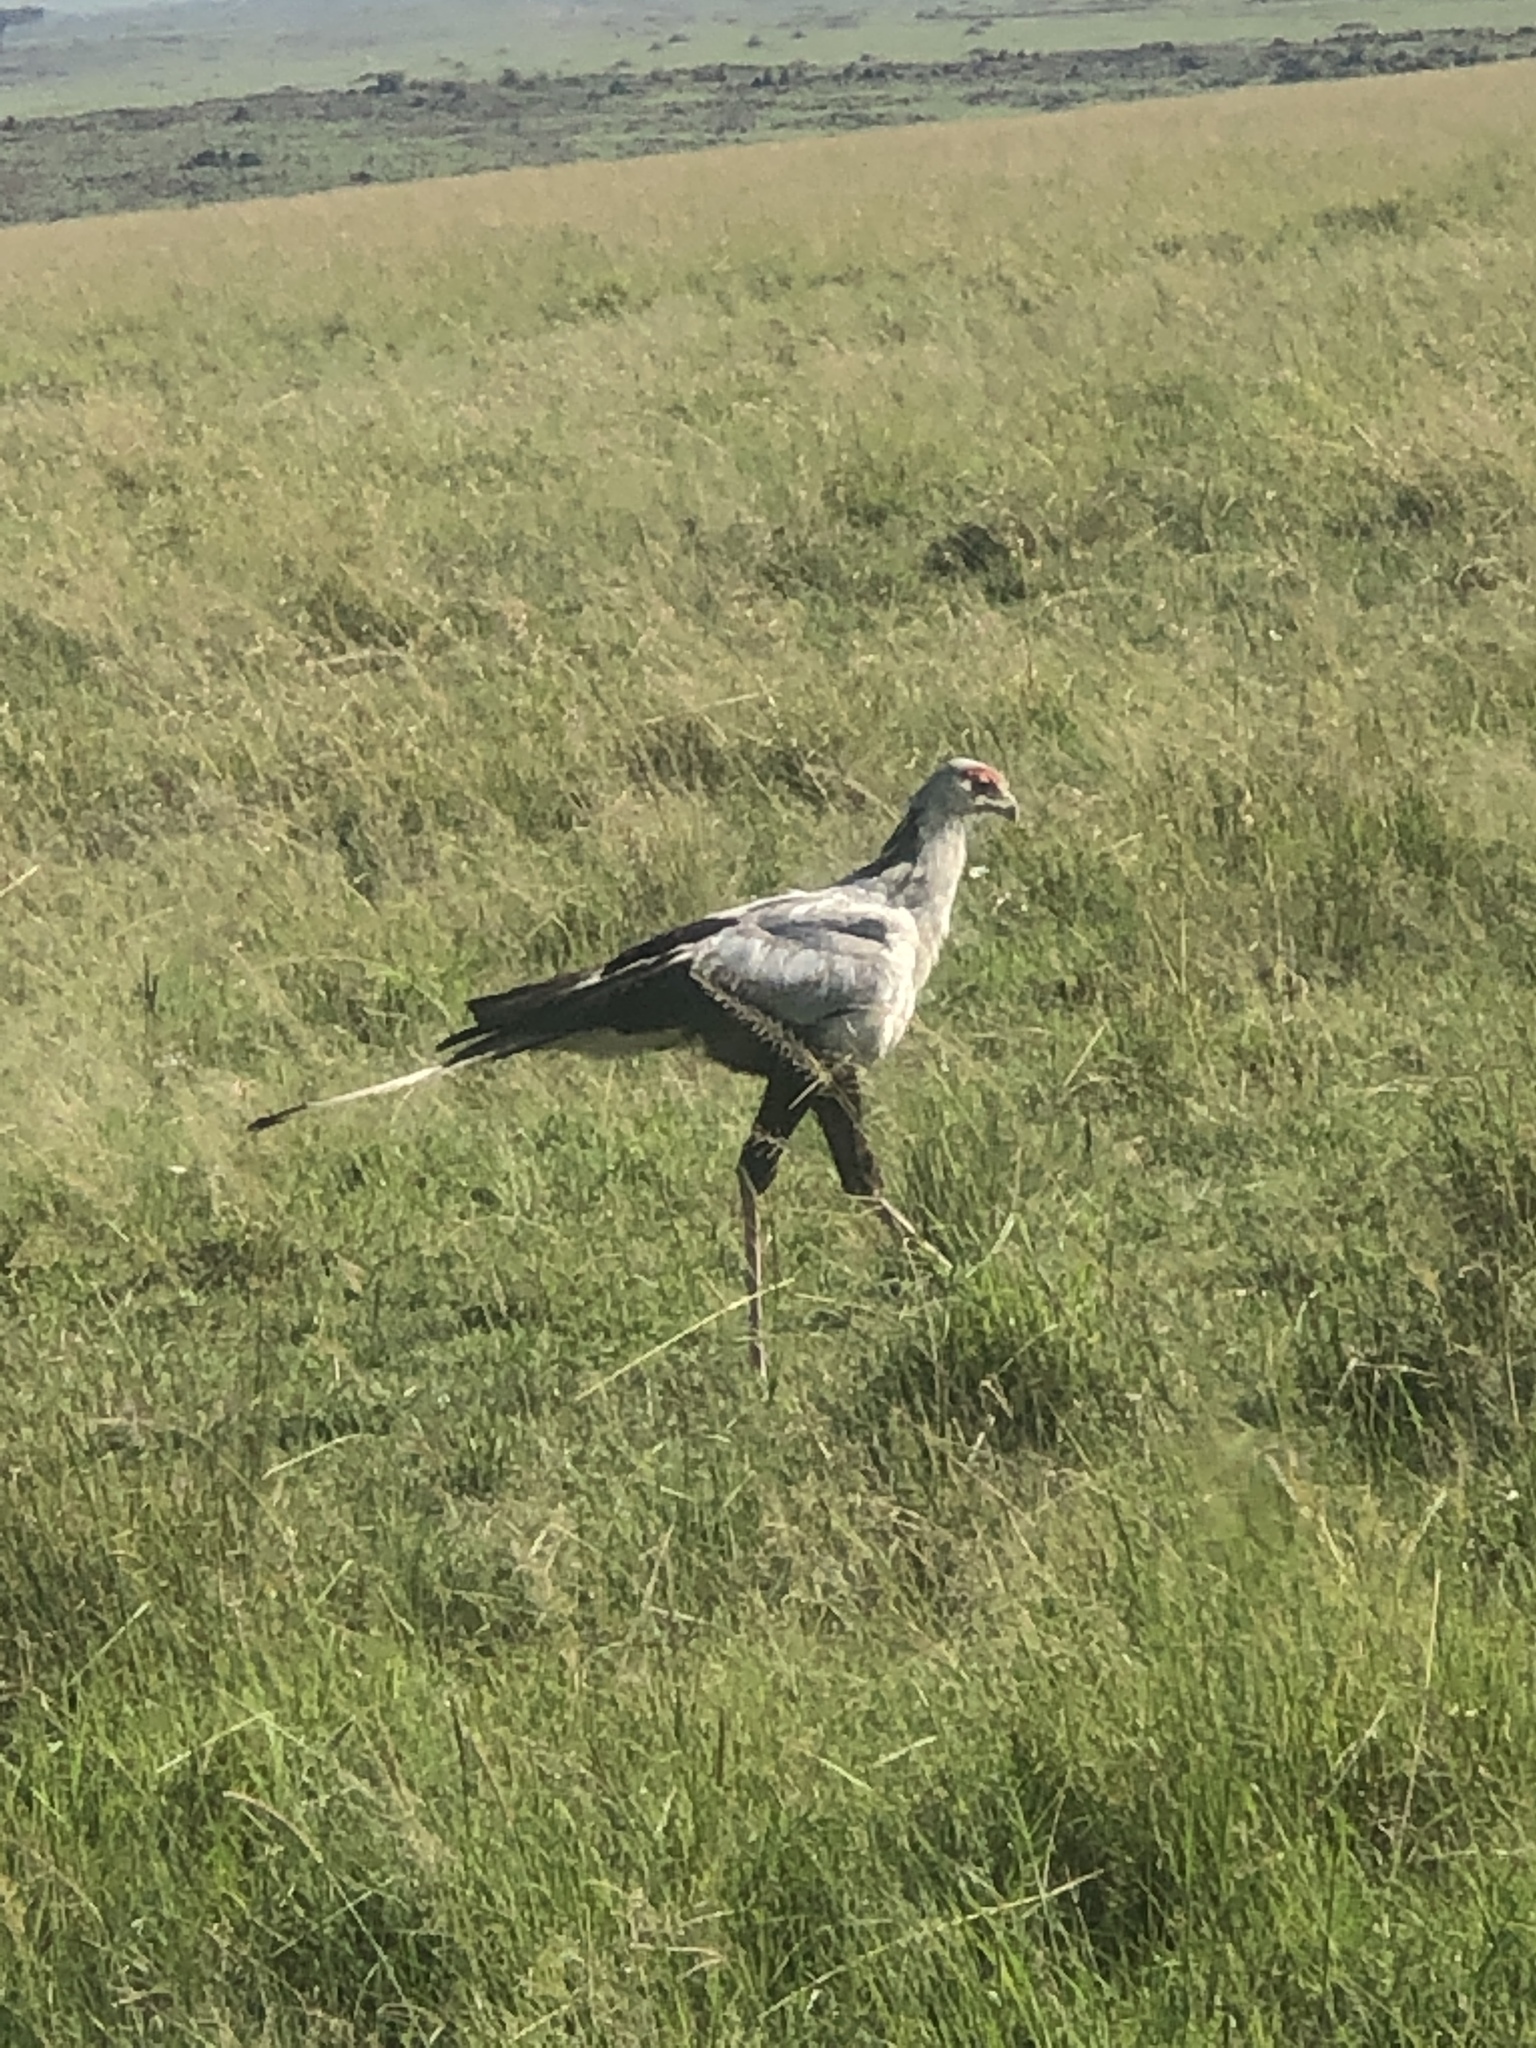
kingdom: Animalia
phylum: Chordata
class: Aves
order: Accipitriformes
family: Sagittariidae
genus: Sagittarius
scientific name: Sagittarius serpentarius
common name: Secretarybird
